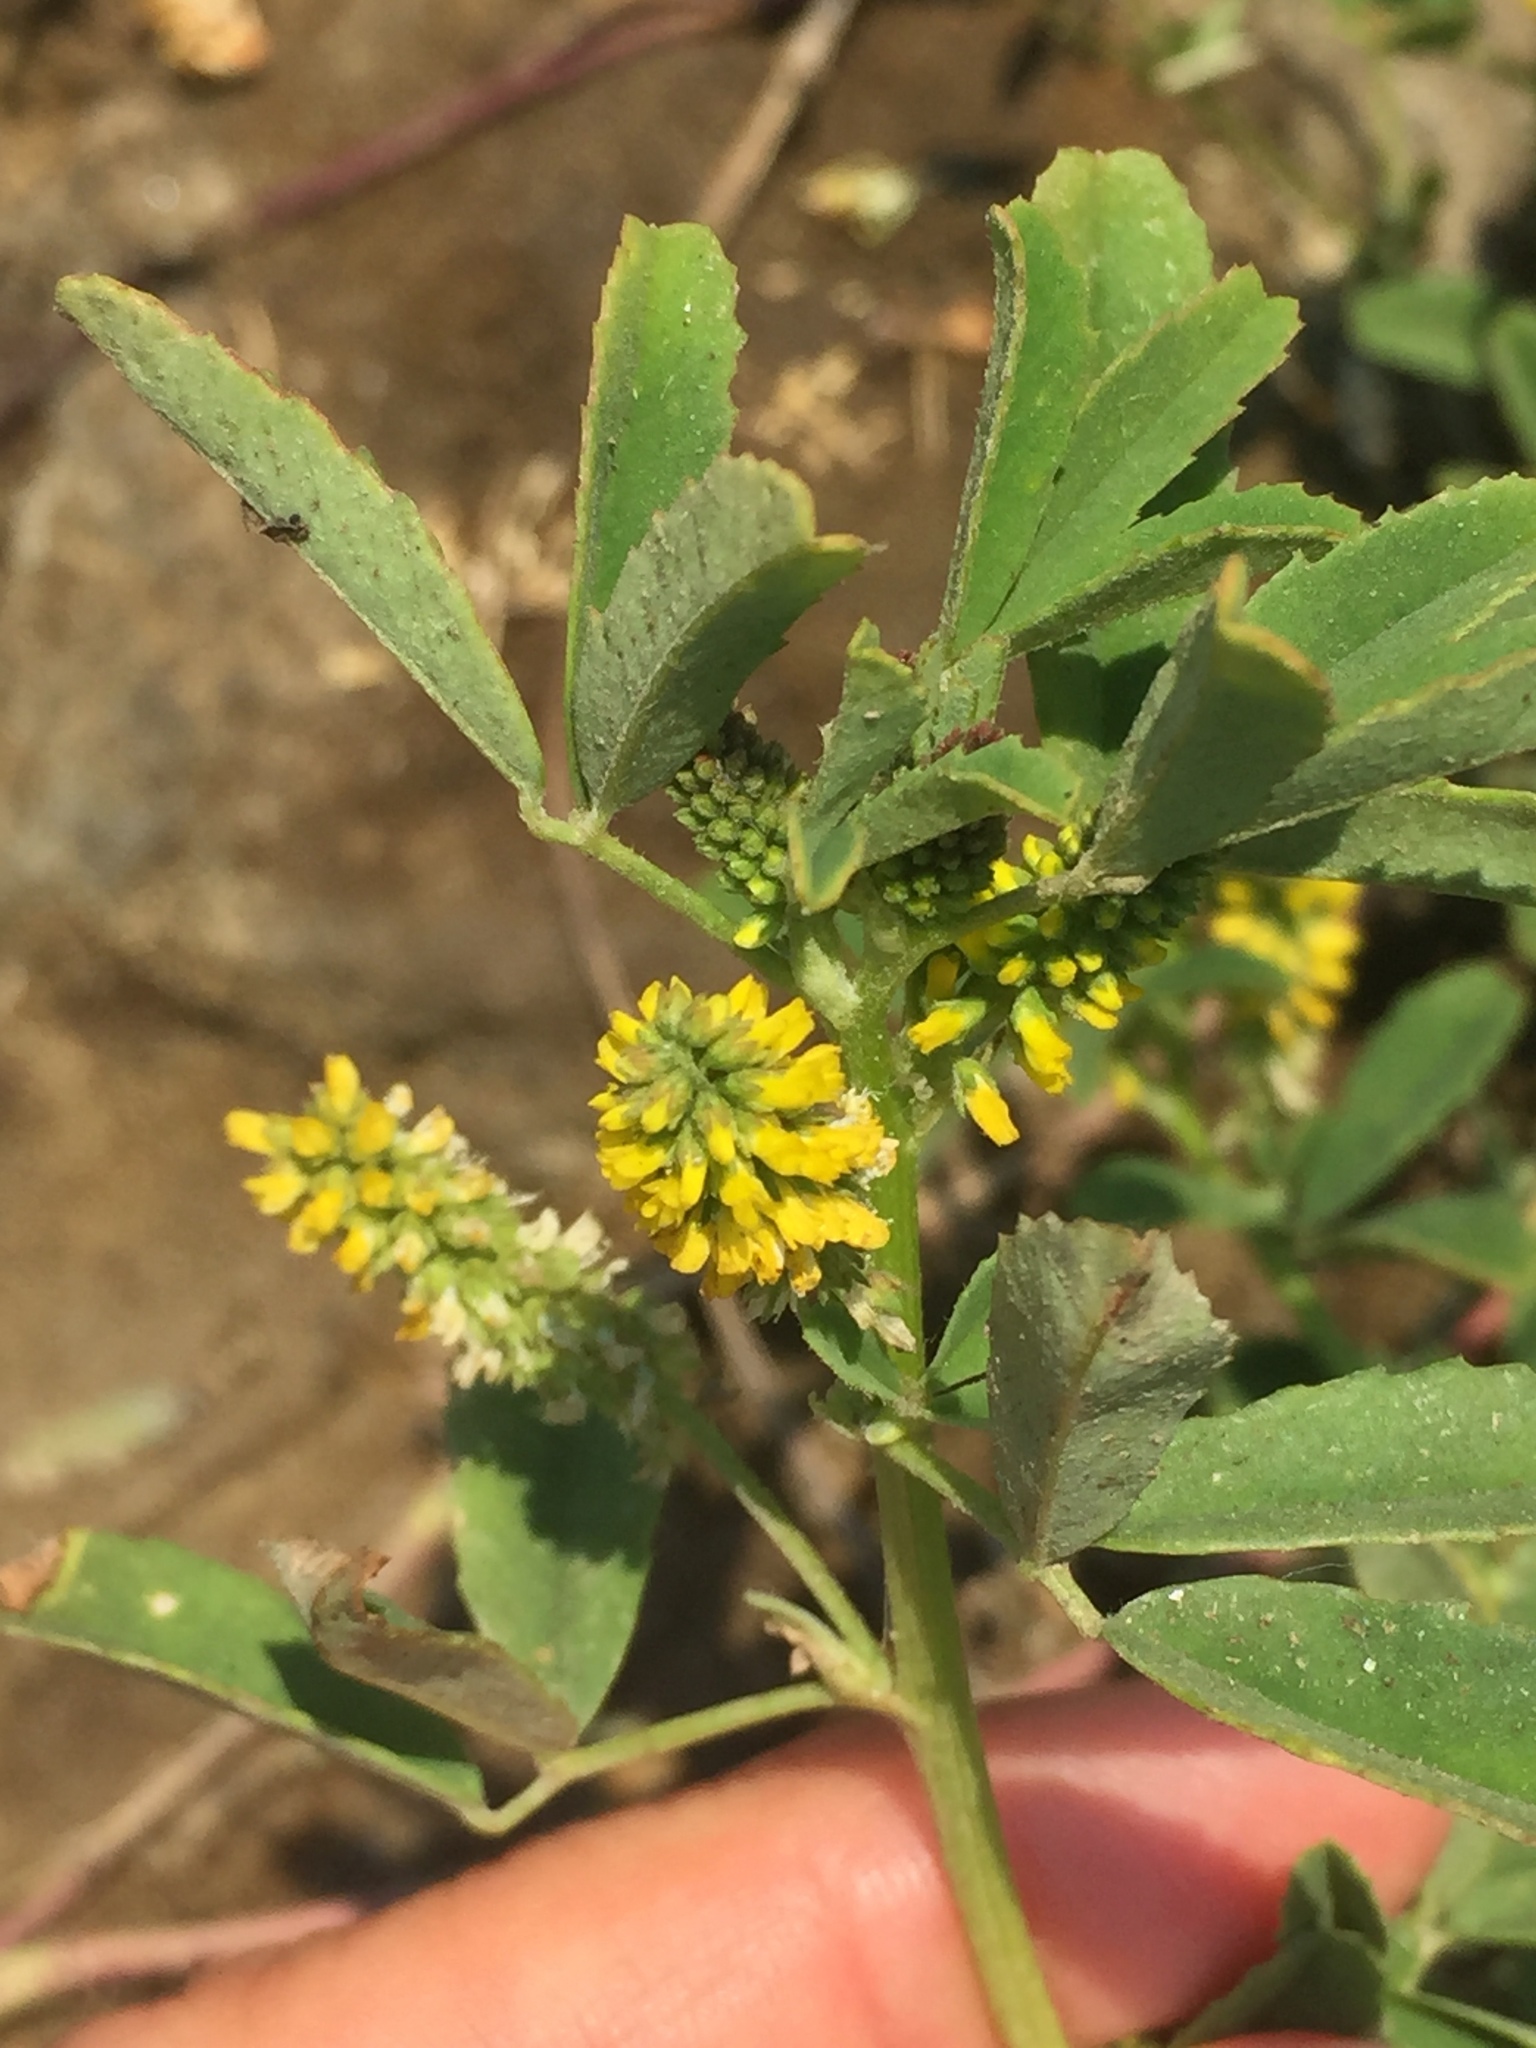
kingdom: Plantae
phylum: Tracheophyta
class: Magnoliopsida
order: Fabales
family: Fabaceae
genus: Melilotus
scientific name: Melilotus indicus
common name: Small melilot
